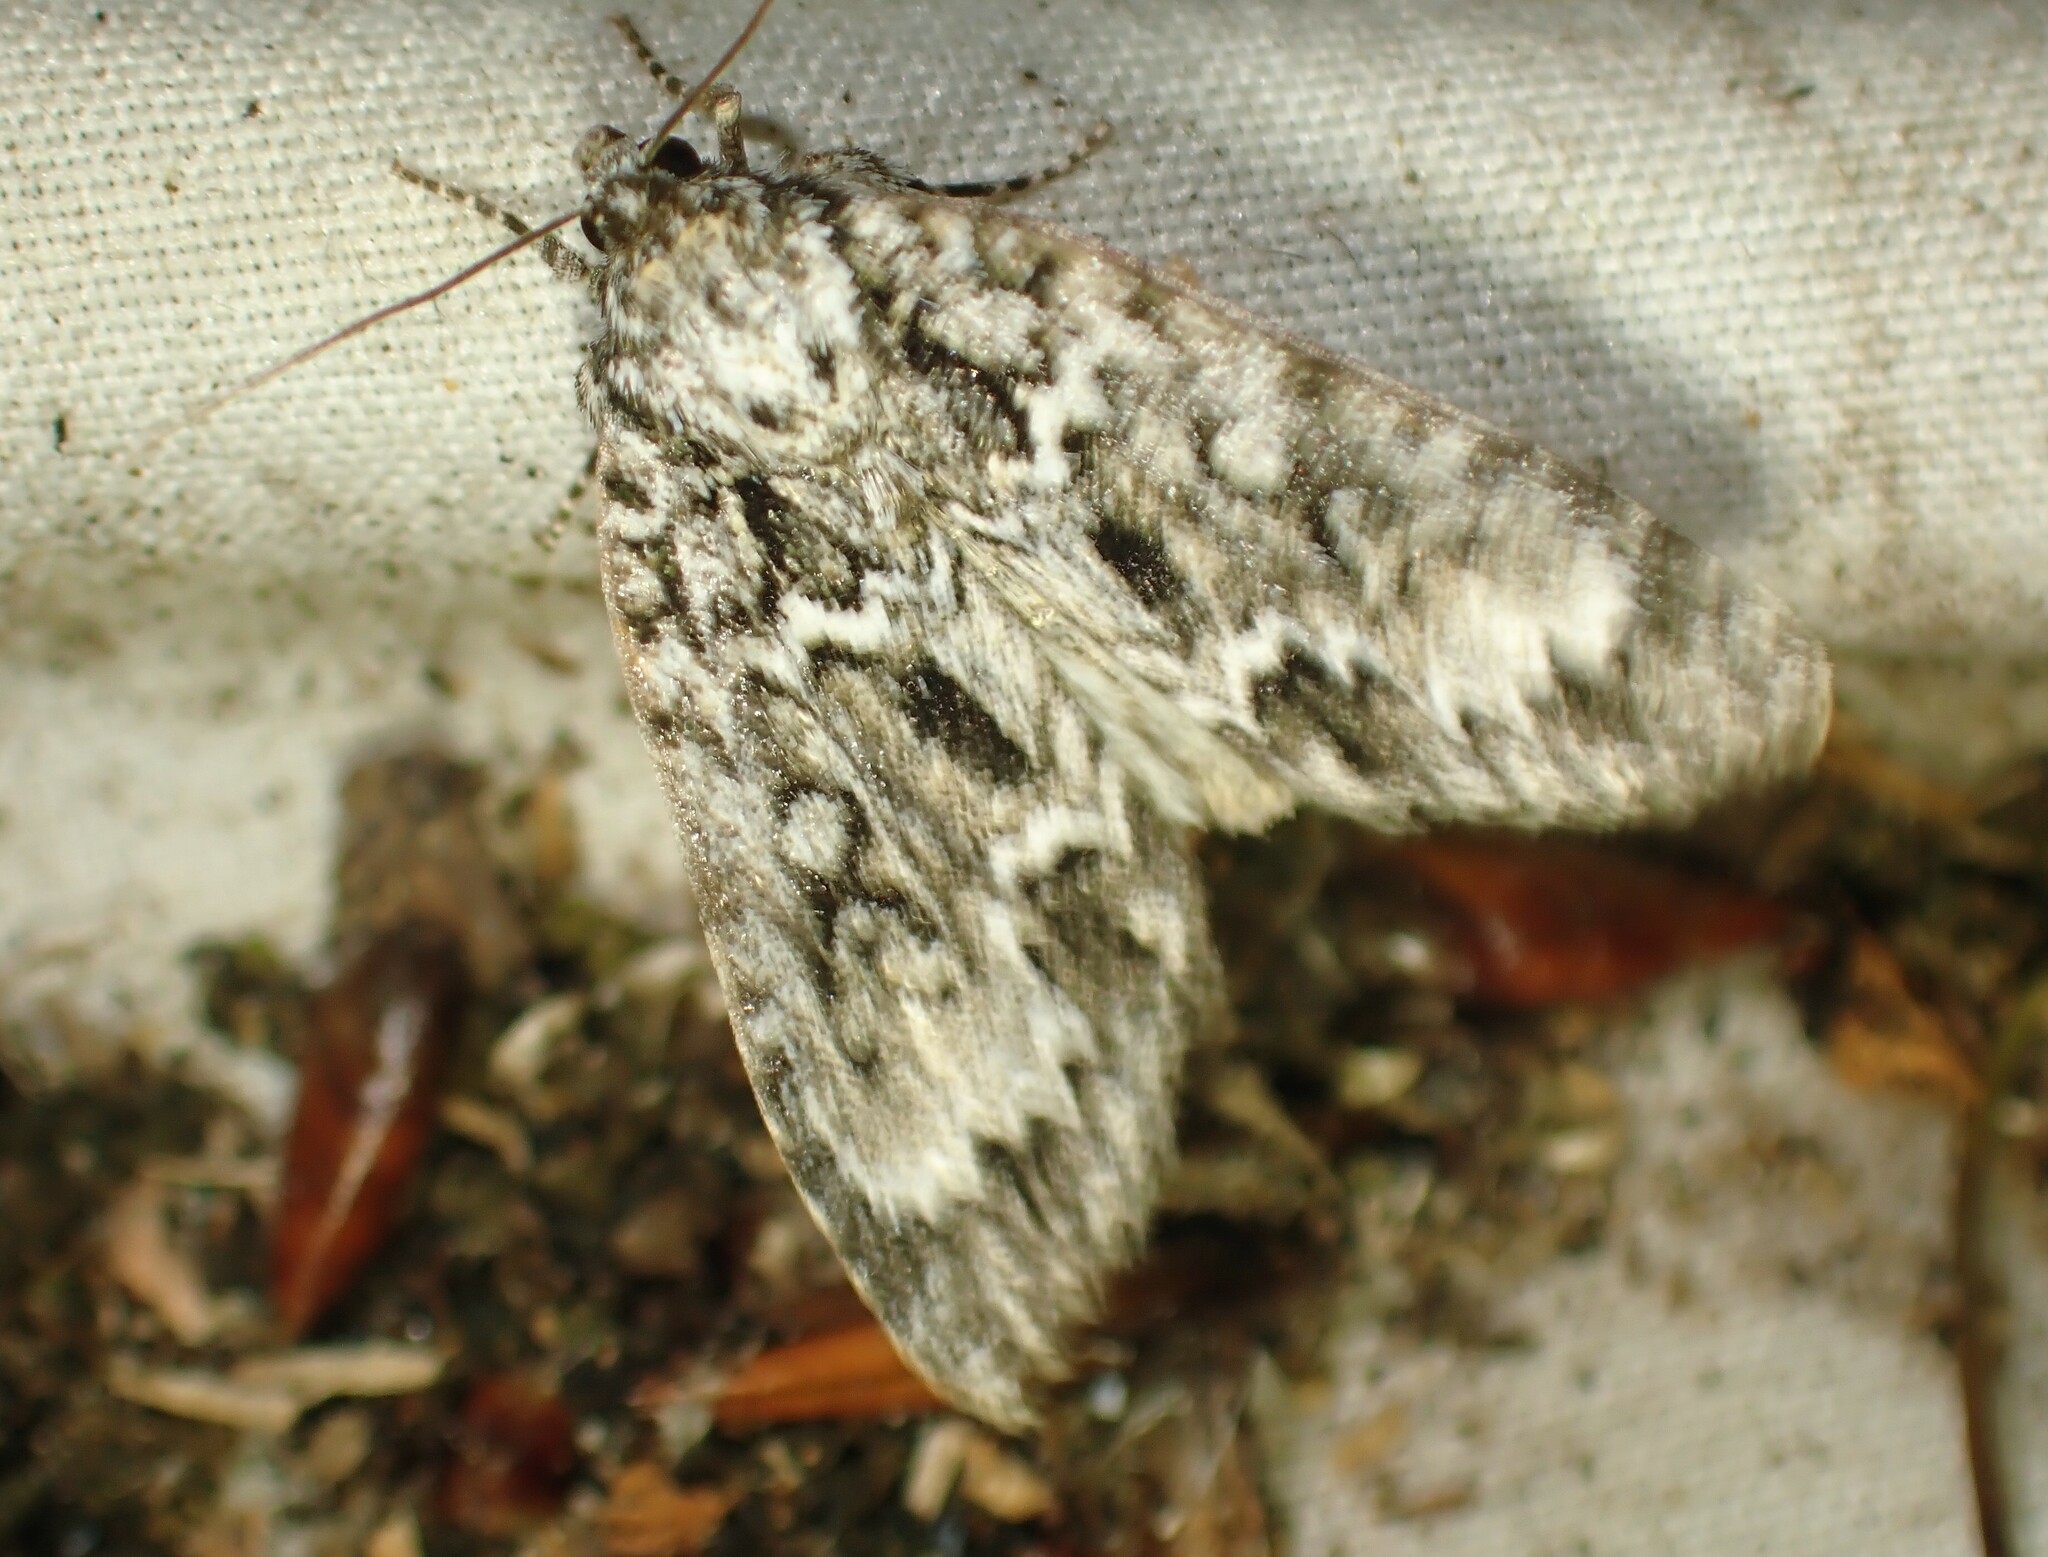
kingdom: Animalia
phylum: Arthropoda
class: Insecta
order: Lepidoptera
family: Noctuidae
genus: Acronicta
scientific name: Acronicta fragilis
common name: Fragile dagger
